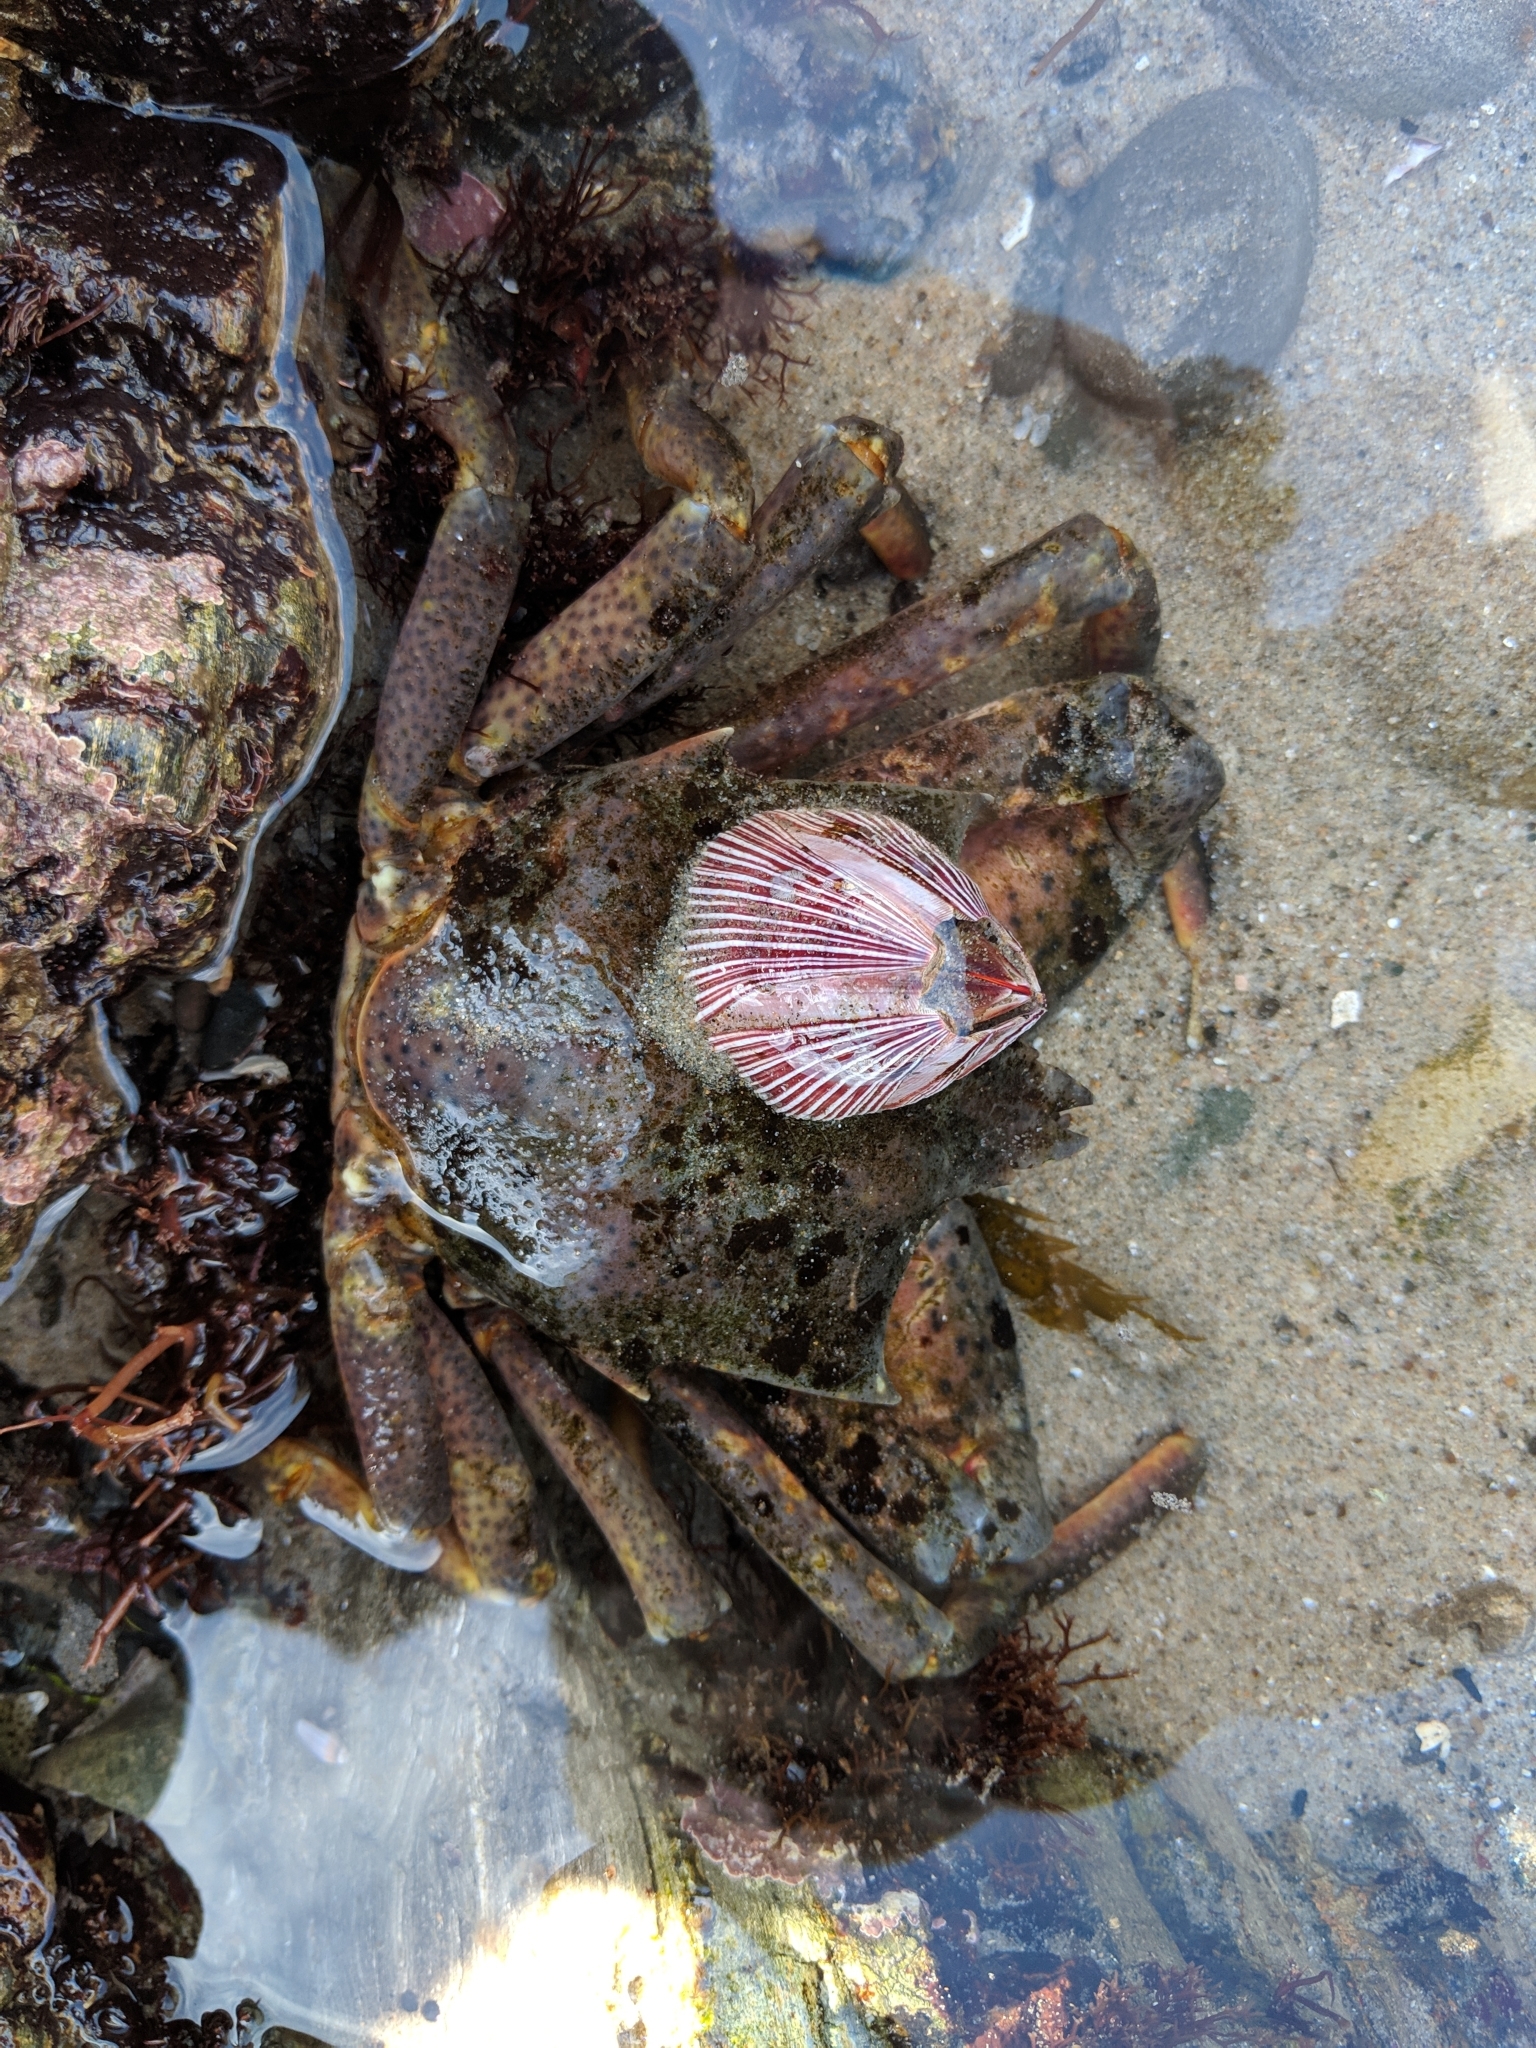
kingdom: Animalia
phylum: Arthropoda
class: Malacostraca
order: Decapoda
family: Epialtidae
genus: Pugettia
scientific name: Pugettia producta
